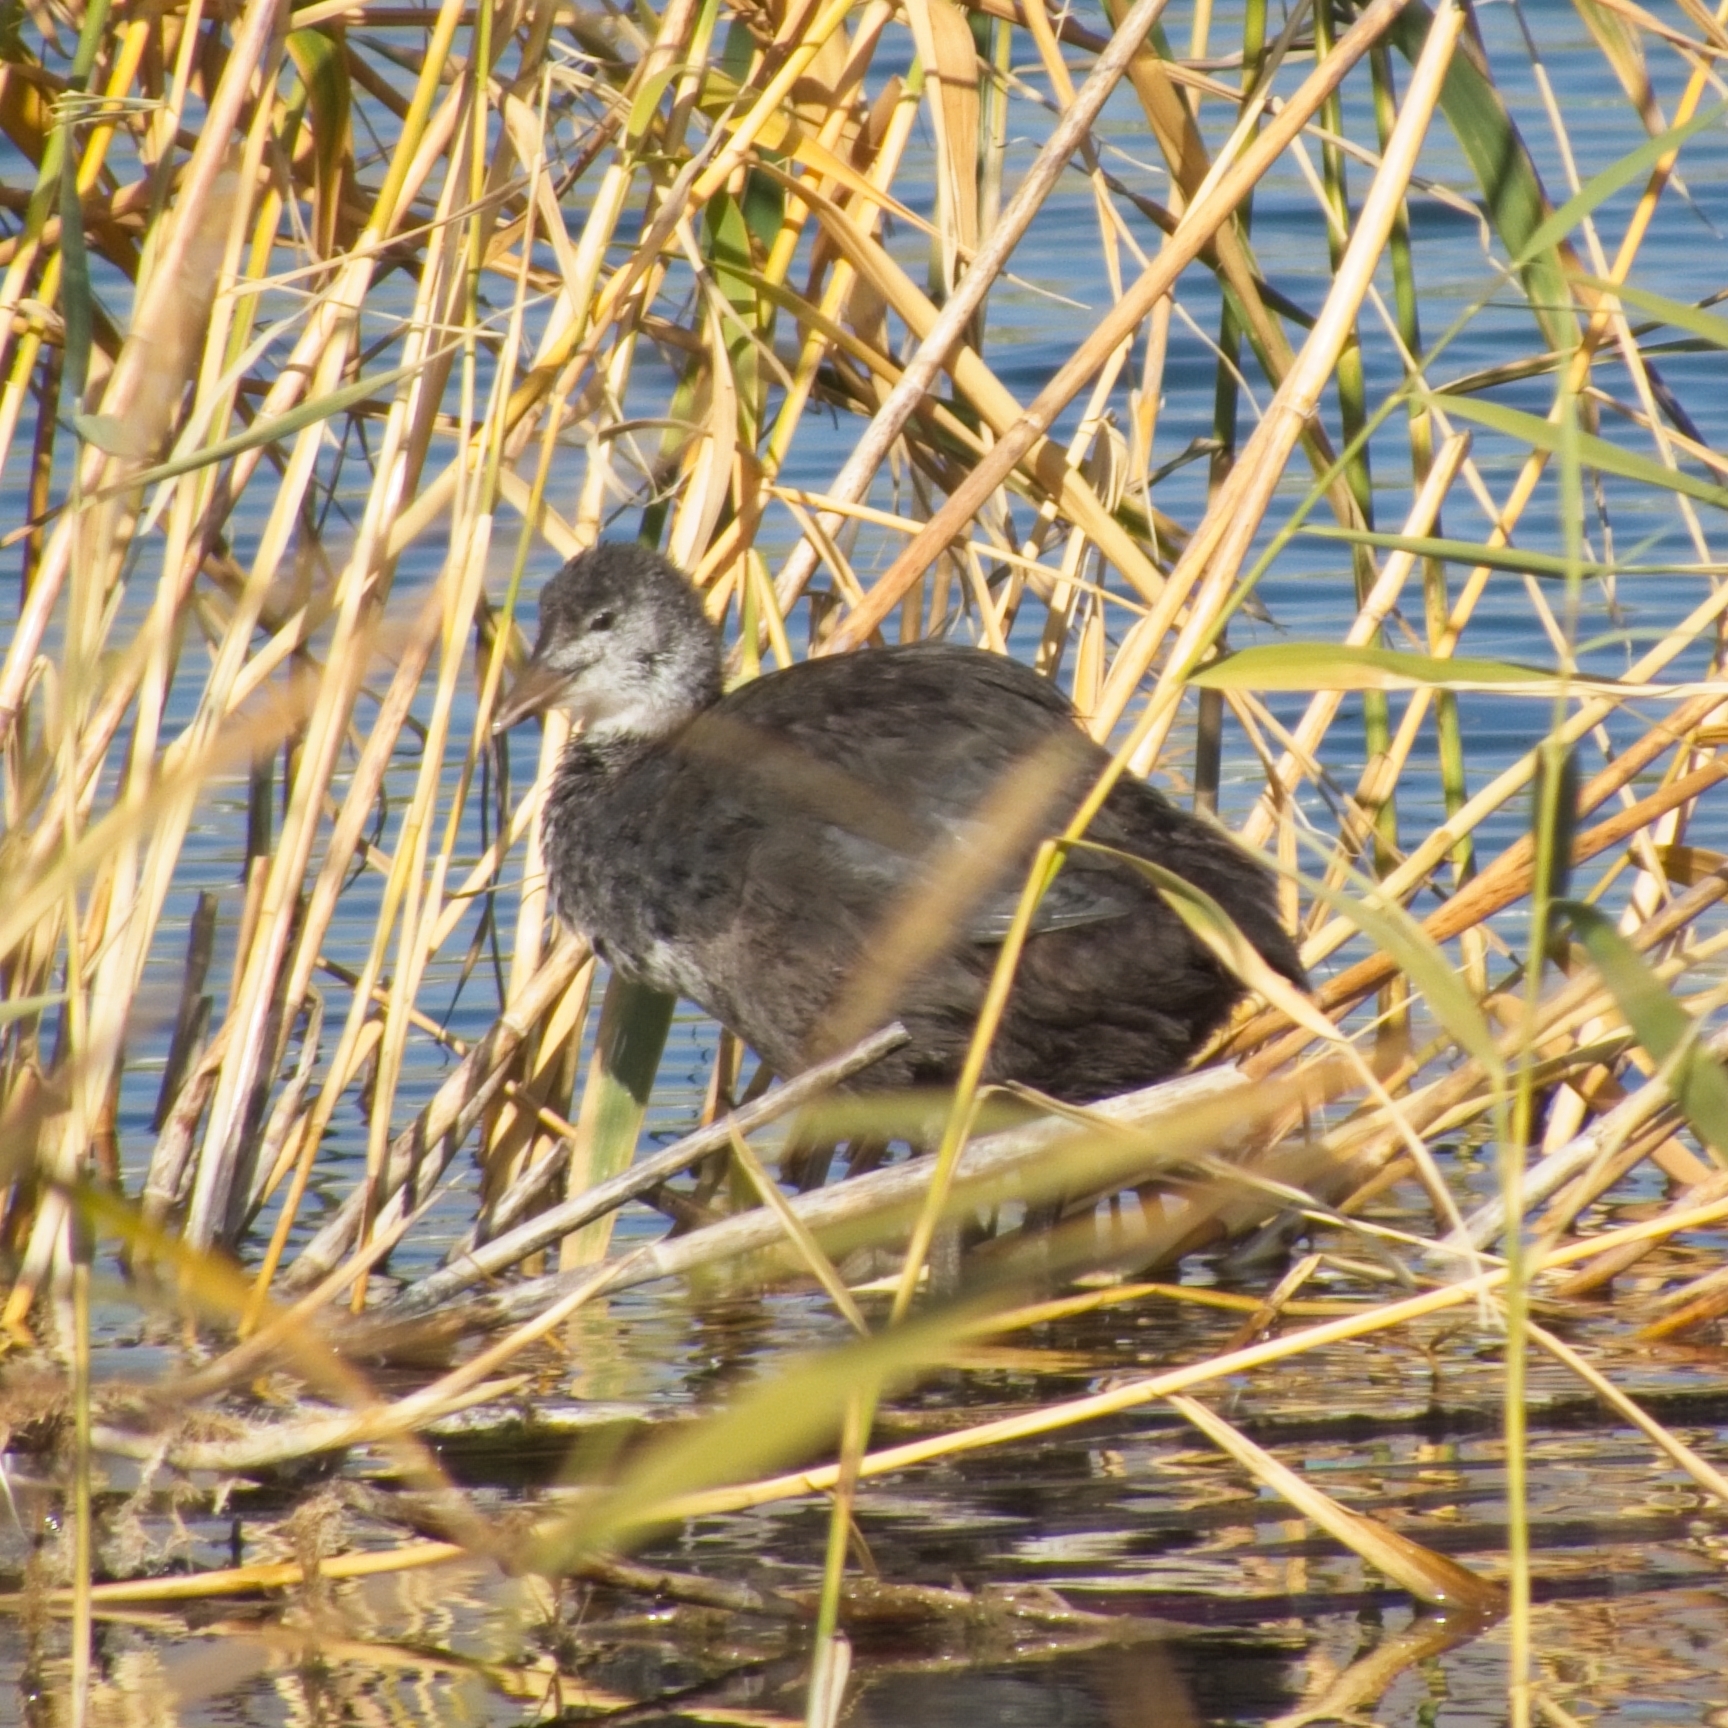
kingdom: Animalia
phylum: Chordata
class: Aves
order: Gruiformes
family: Rallidae
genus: Fulica
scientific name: Fulica atra
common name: Eurasian coot
